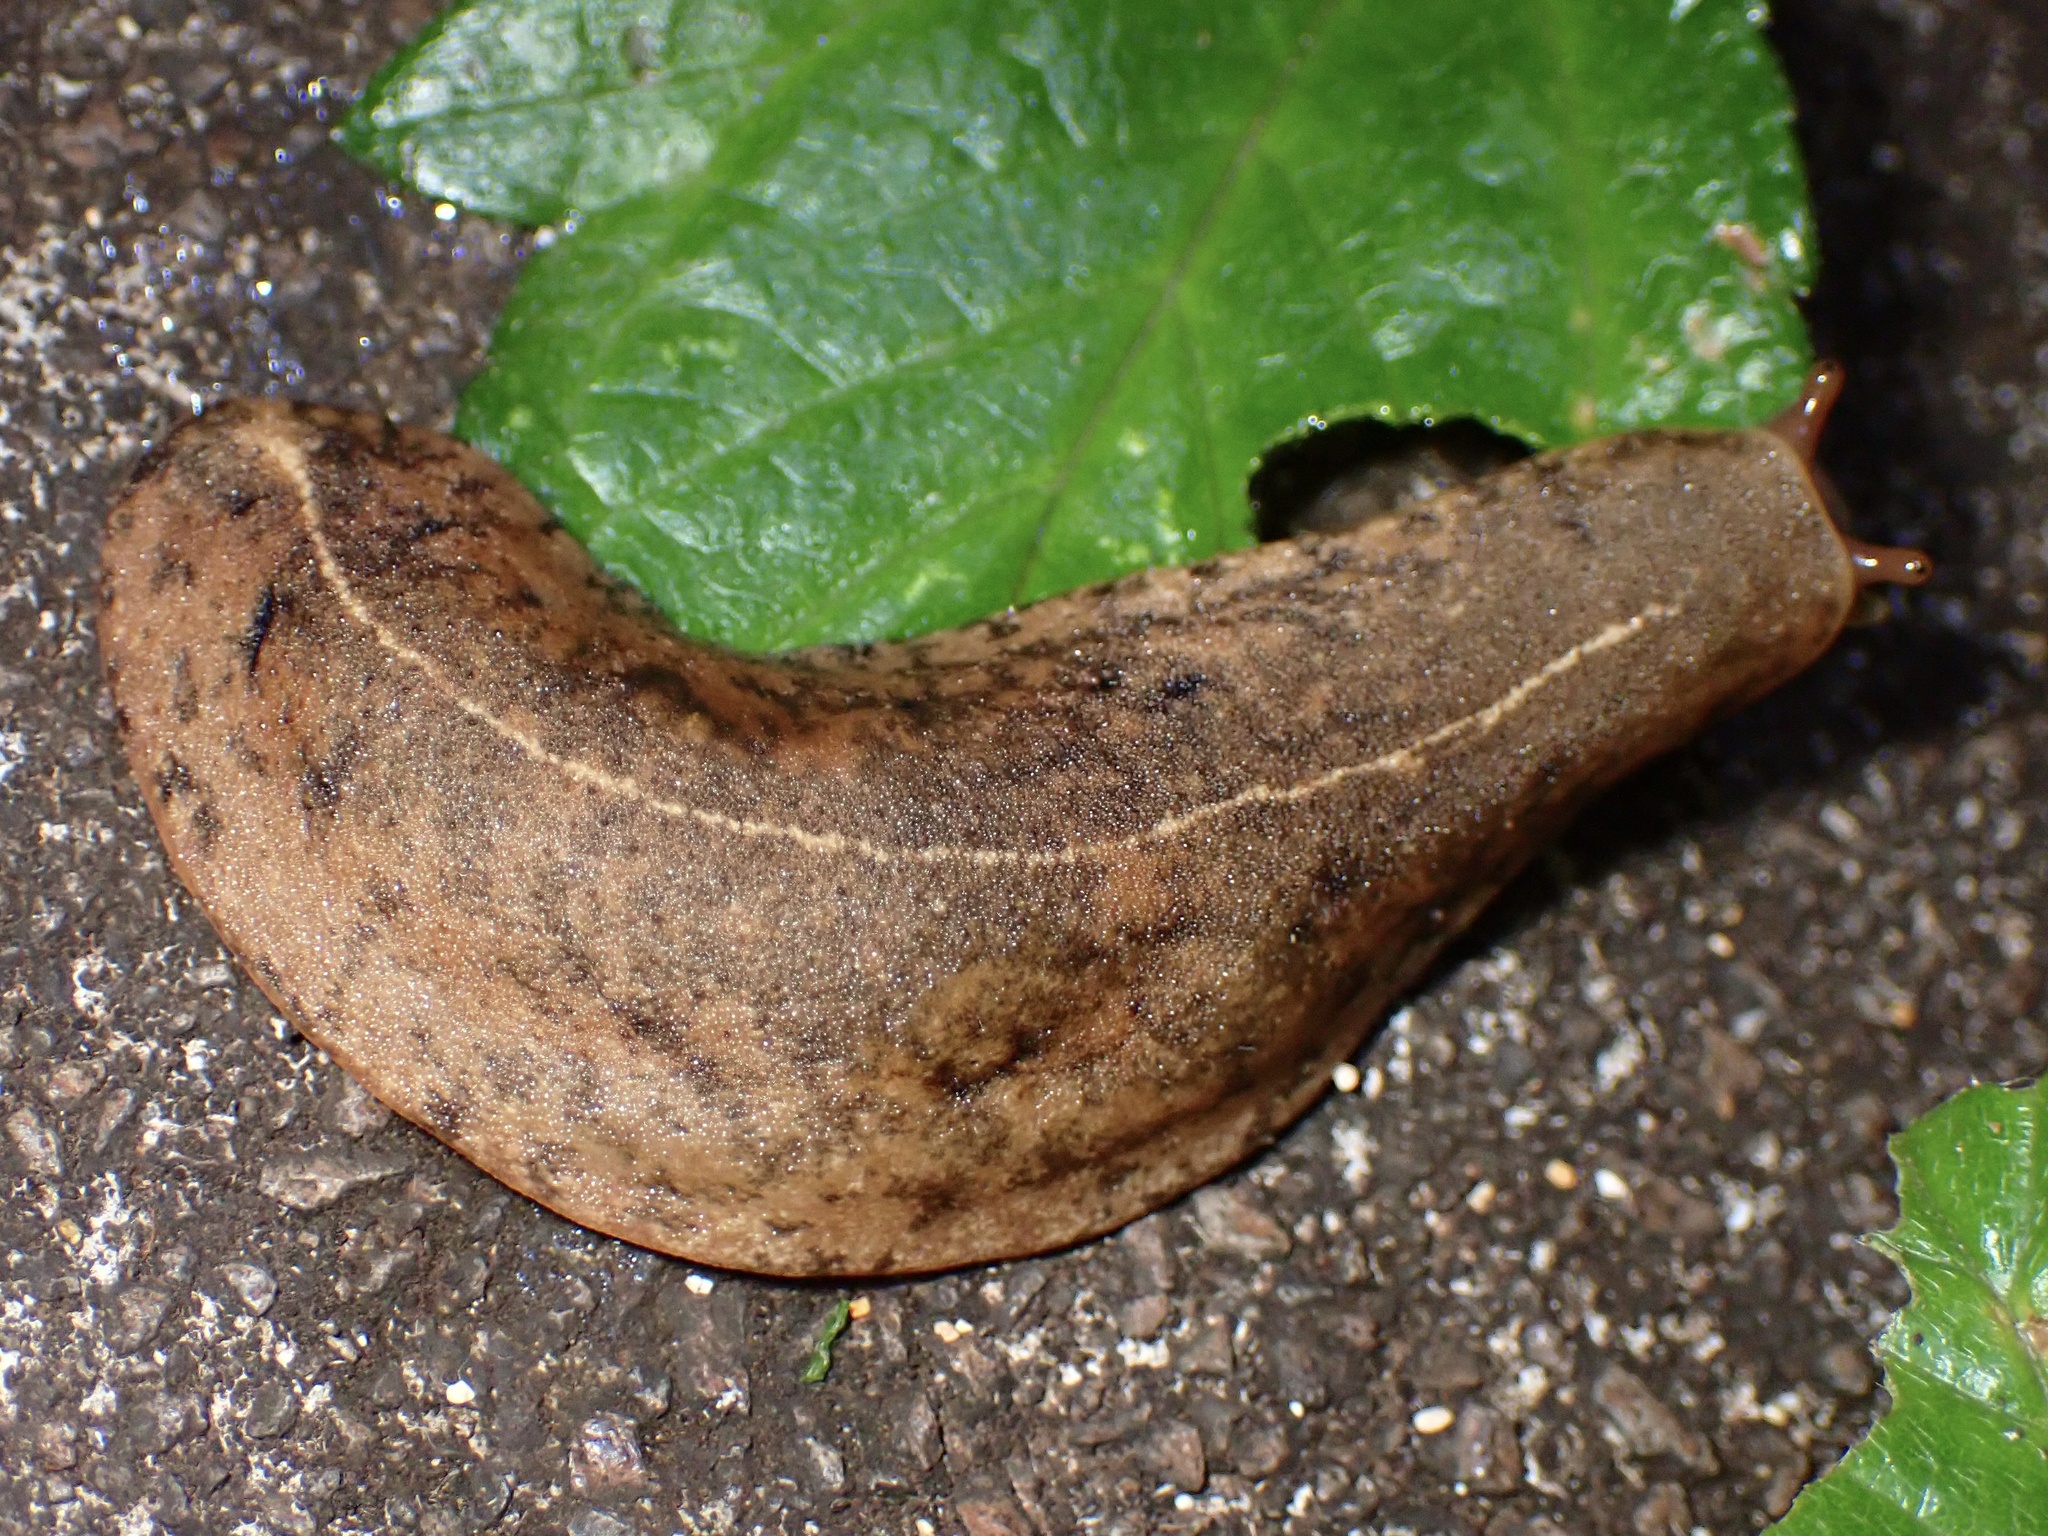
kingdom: Animalia
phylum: Mollusca
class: Gastropoda
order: Systellommatophora
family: Veronicellidae
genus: Veronicella
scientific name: Veronicella cubensis
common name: Two striped slug
